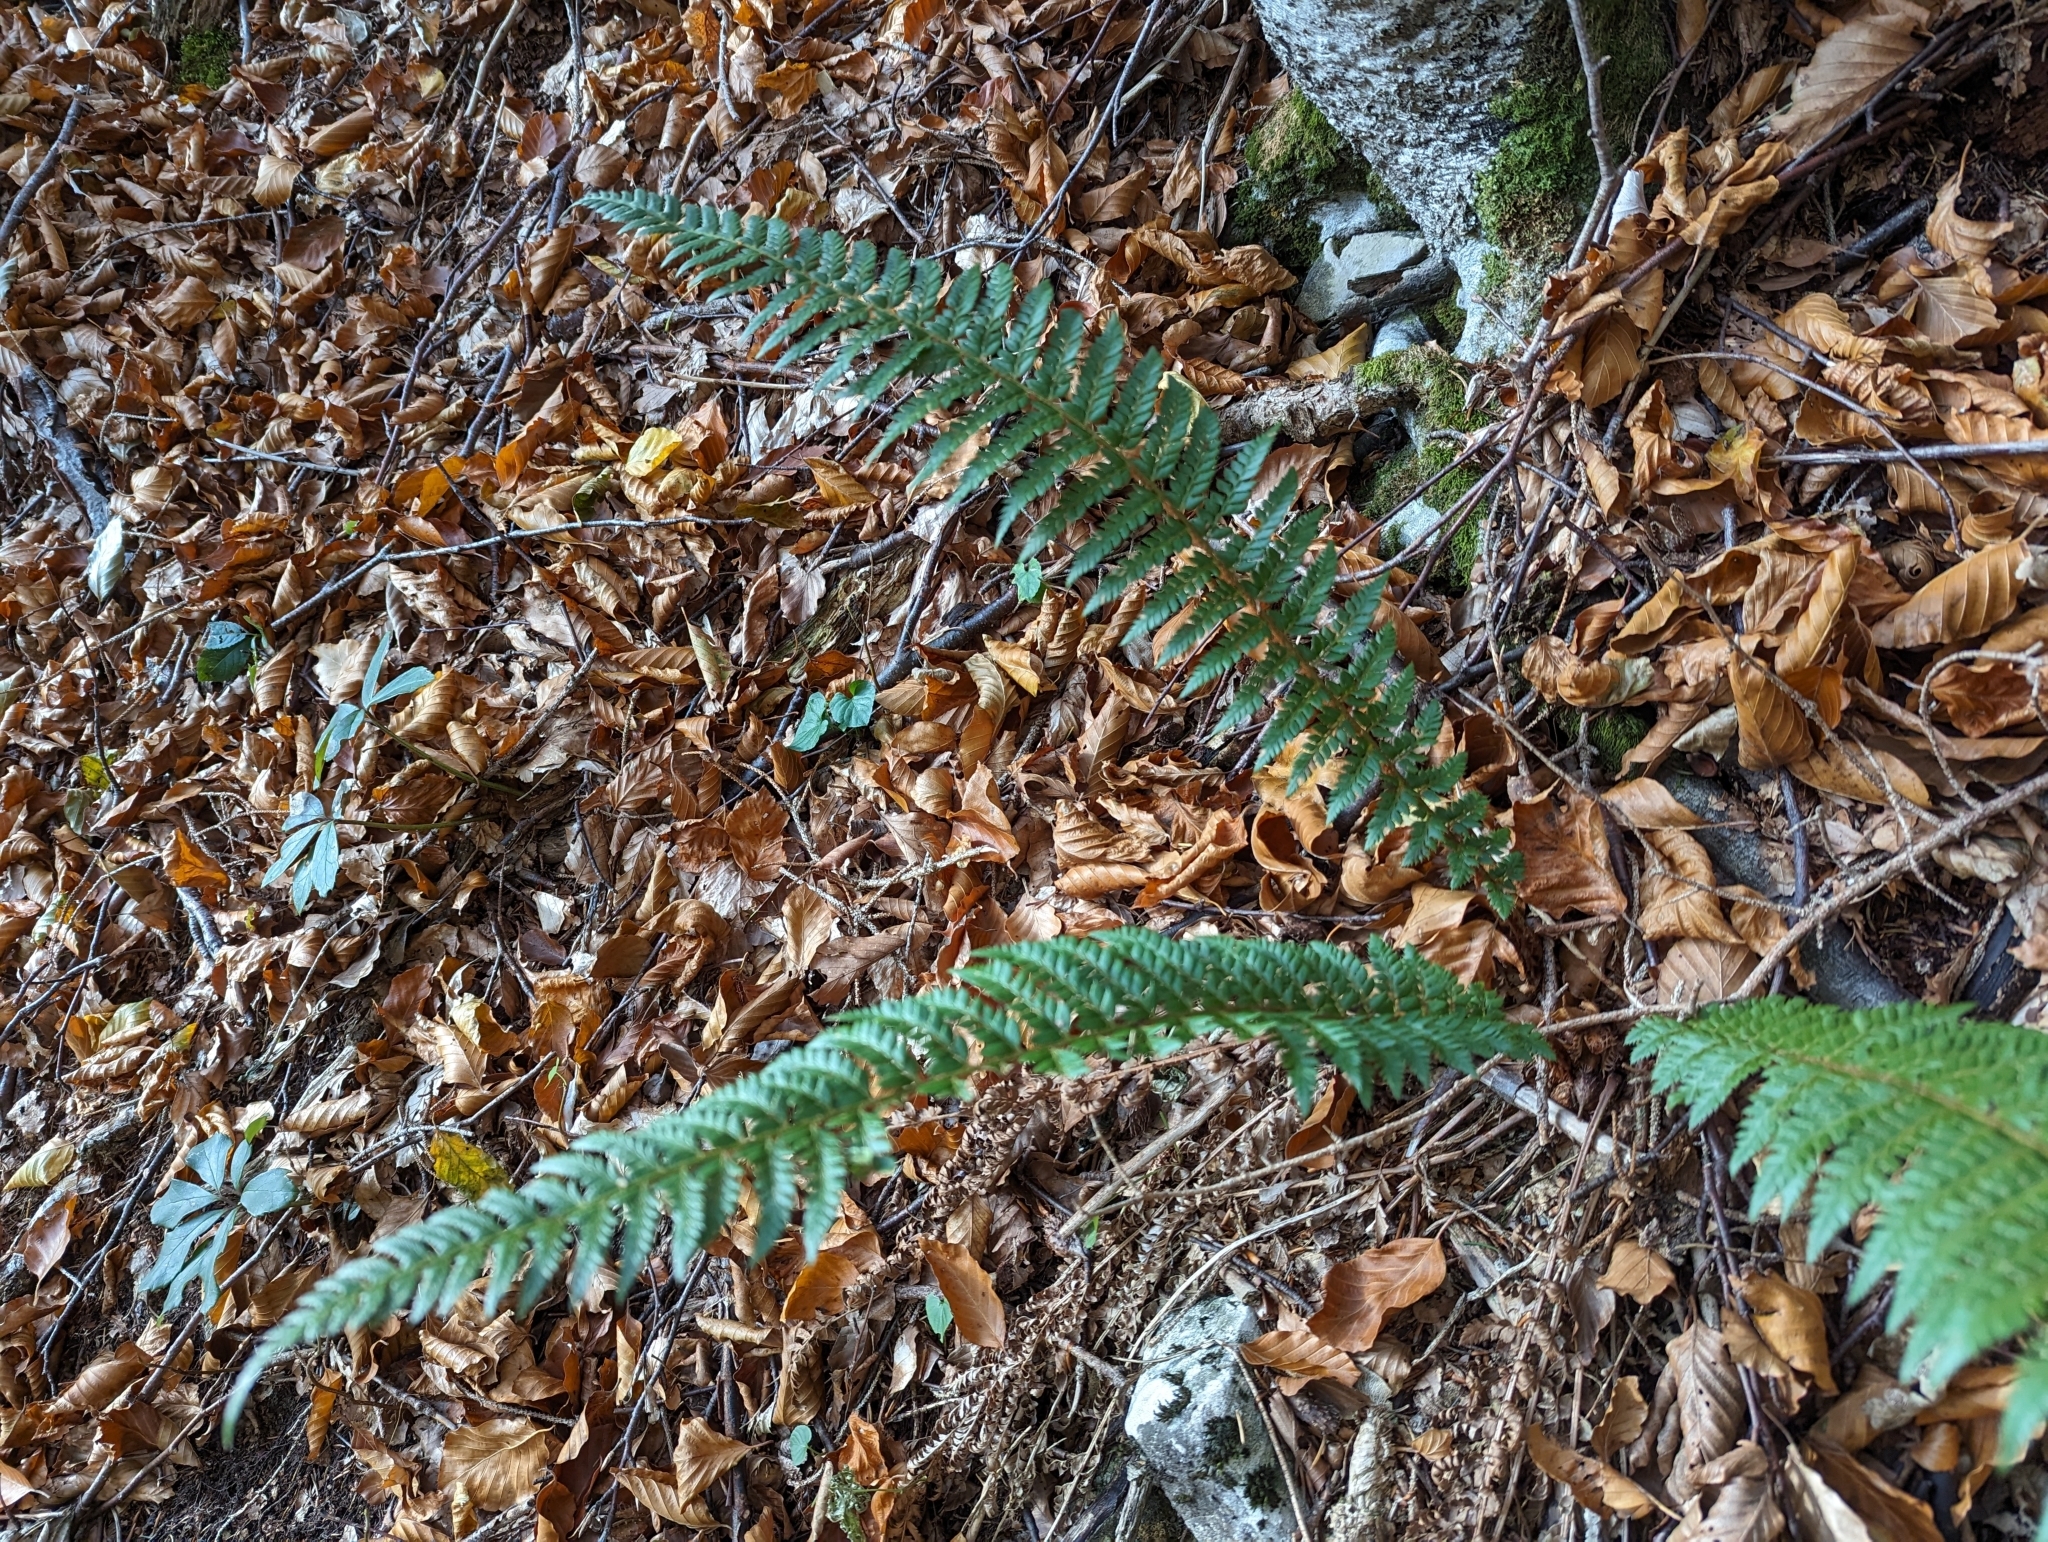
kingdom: Plantae
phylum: Tracheophyta
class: Polypodiopsida
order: Polypodiales
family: Dryopteridaceae
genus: Polystichum
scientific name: Polystichum aculeatum
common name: Hard shield-fern
